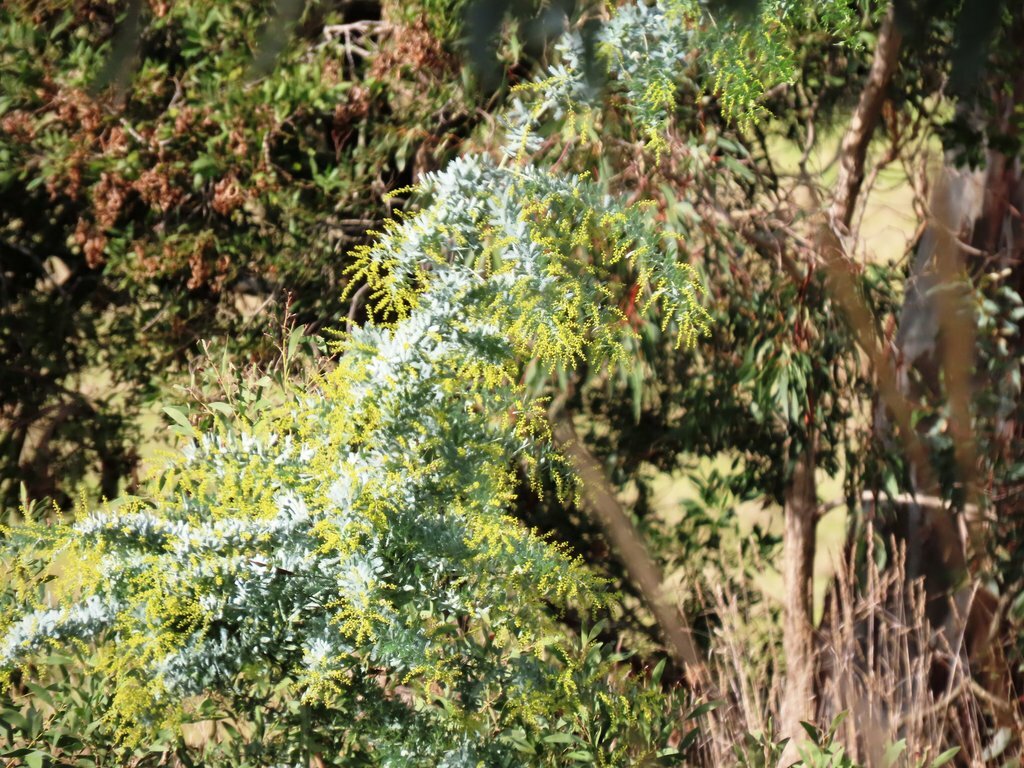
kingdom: Plantae
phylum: Tracheophyta
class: Magnoliopsida
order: Fabales
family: Fabaceae
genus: Acacia
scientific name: Acacia baileyana
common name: Cootamundra wattle
